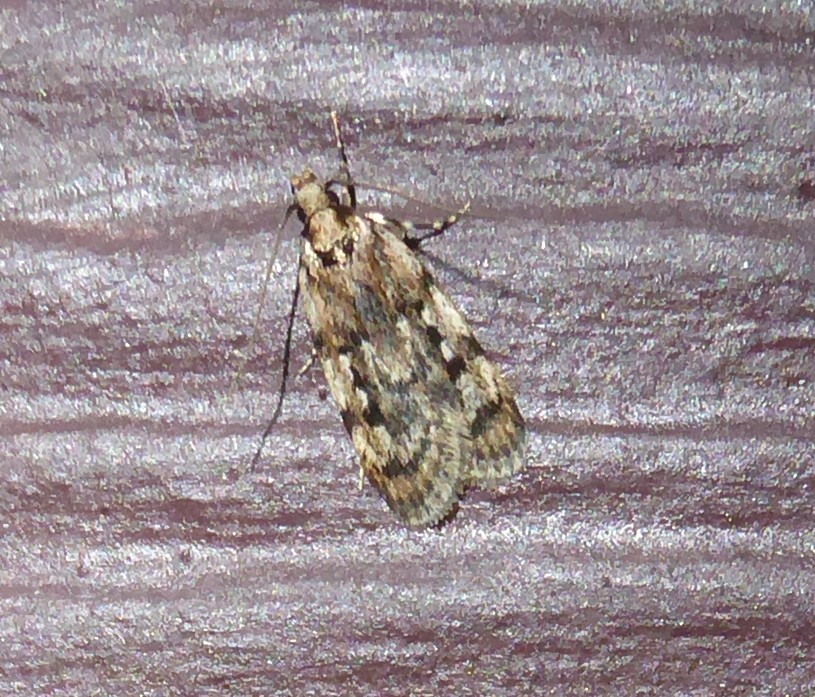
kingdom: Animalia
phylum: Arthropoda
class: Insecta
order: Lepidoptera
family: Oecophoridae
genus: Barea
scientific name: Barea exarcha
